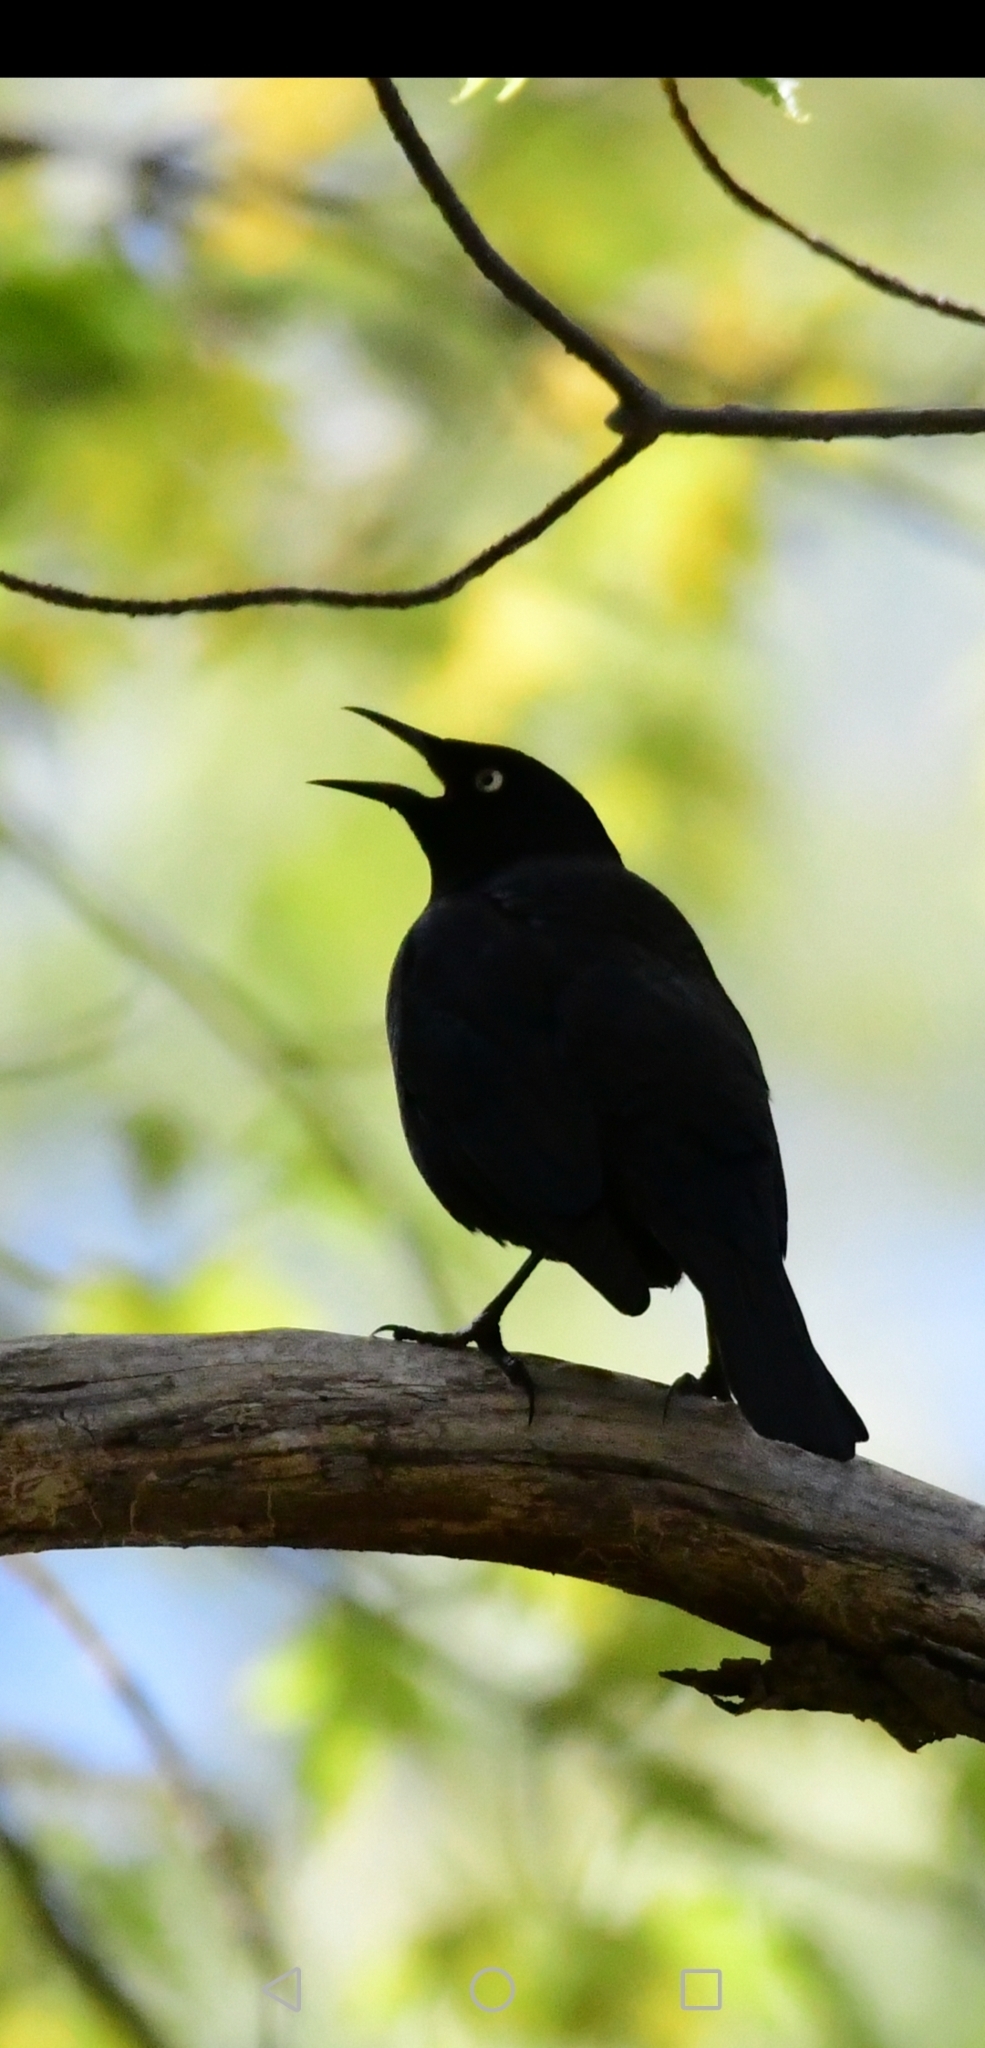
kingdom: Animalia
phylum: Chordata
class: Aves
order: Passeriformes
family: Icteridae
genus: Euphagus
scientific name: Euphagus carolinus
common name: Rusty blackbird
